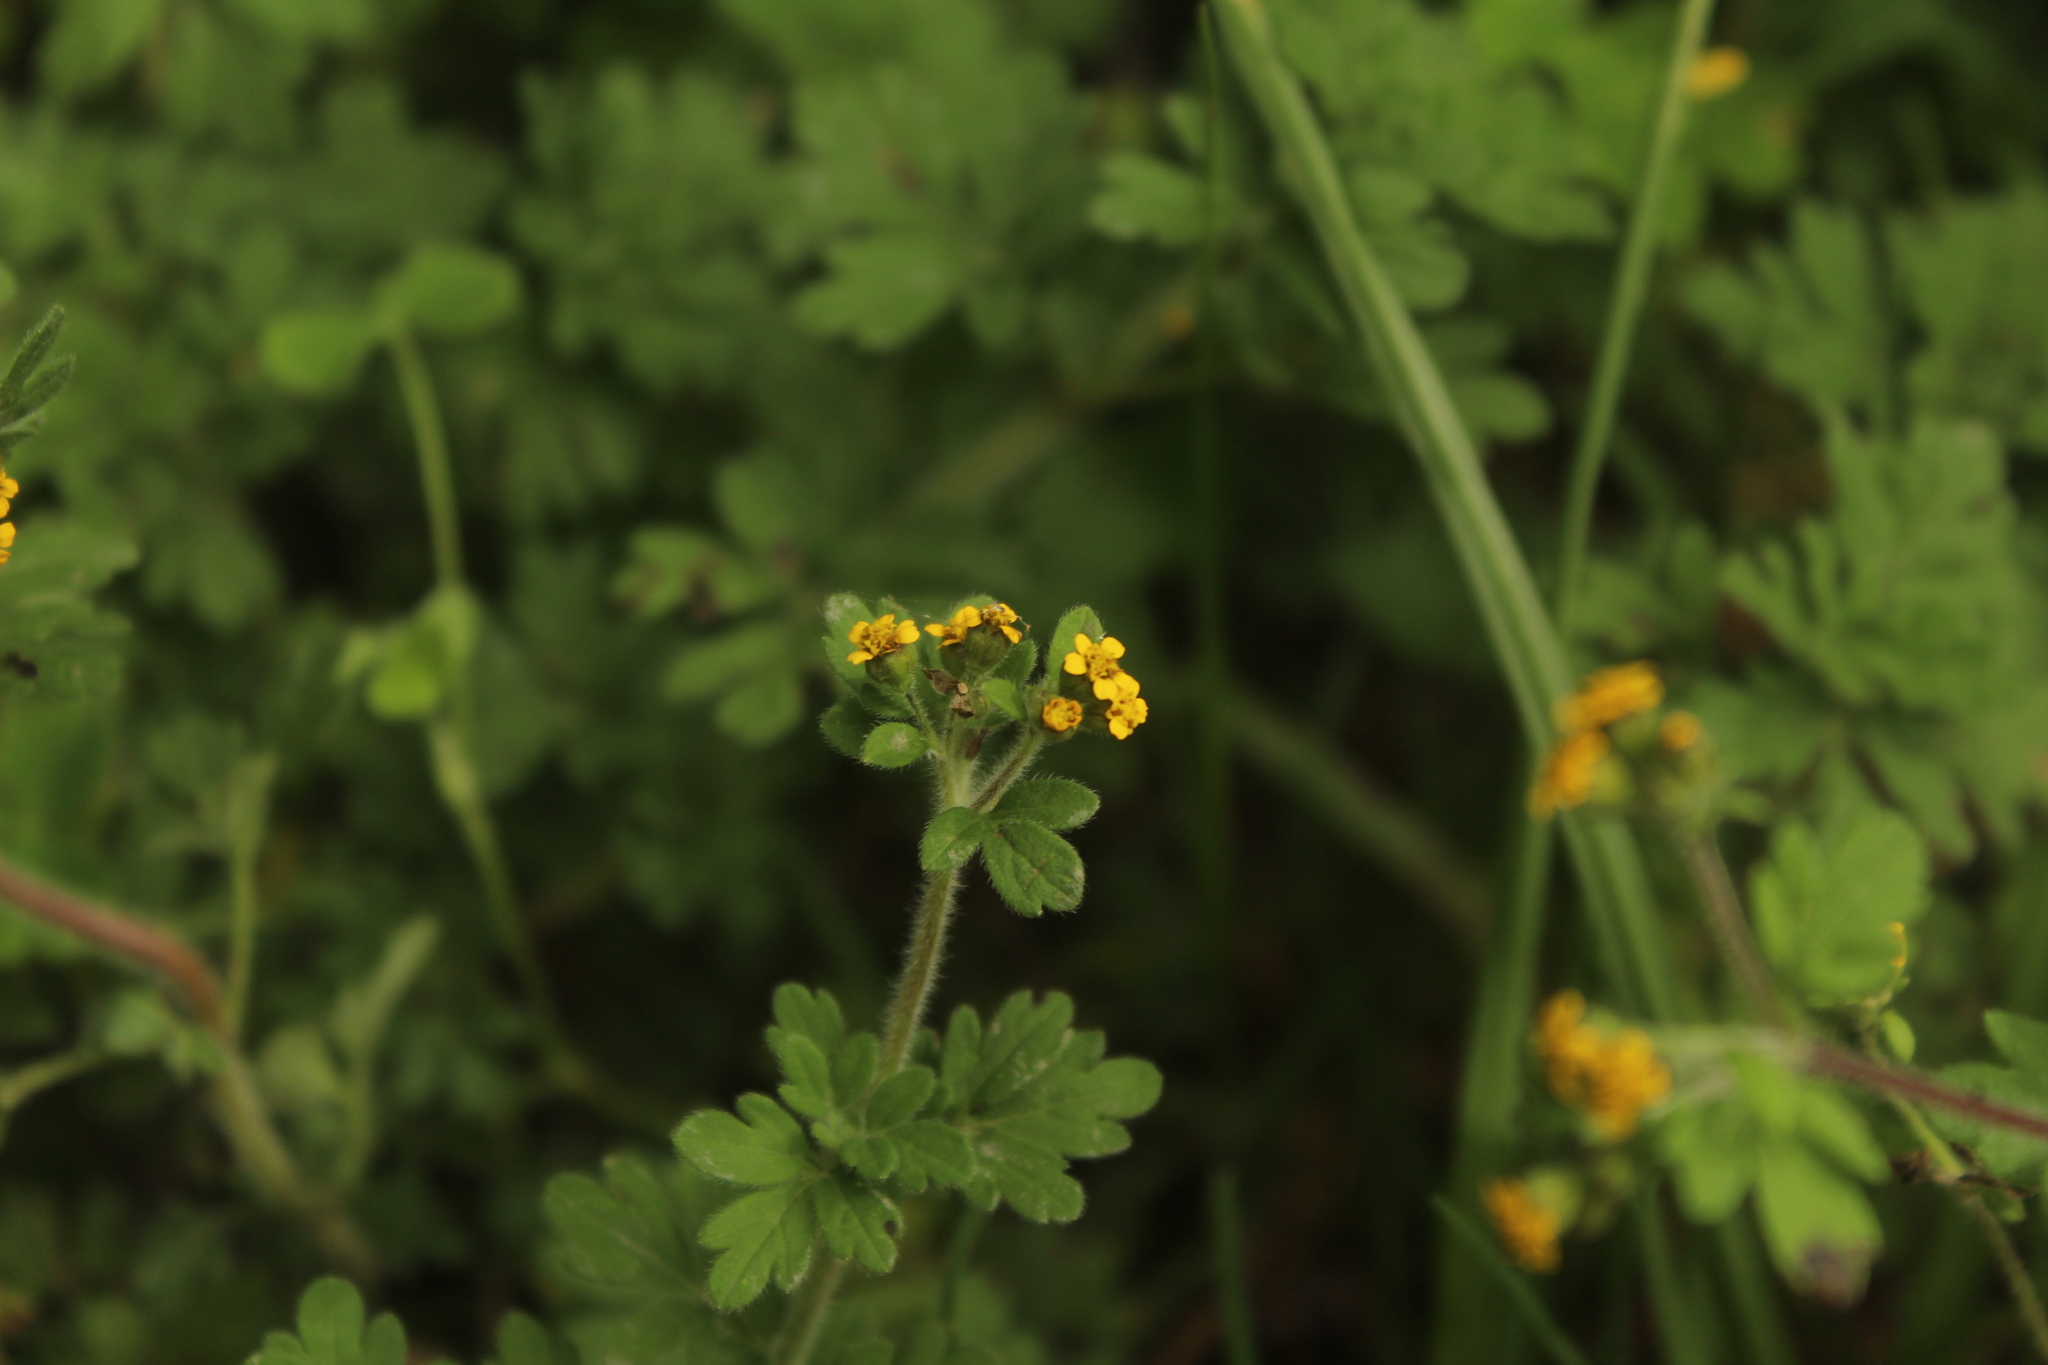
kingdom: Plantae
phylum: Tracheophyta
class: Magnoliopsida
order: Asterales
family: Asteraceae
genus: Villanova
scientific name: Villanova oppositifolia
